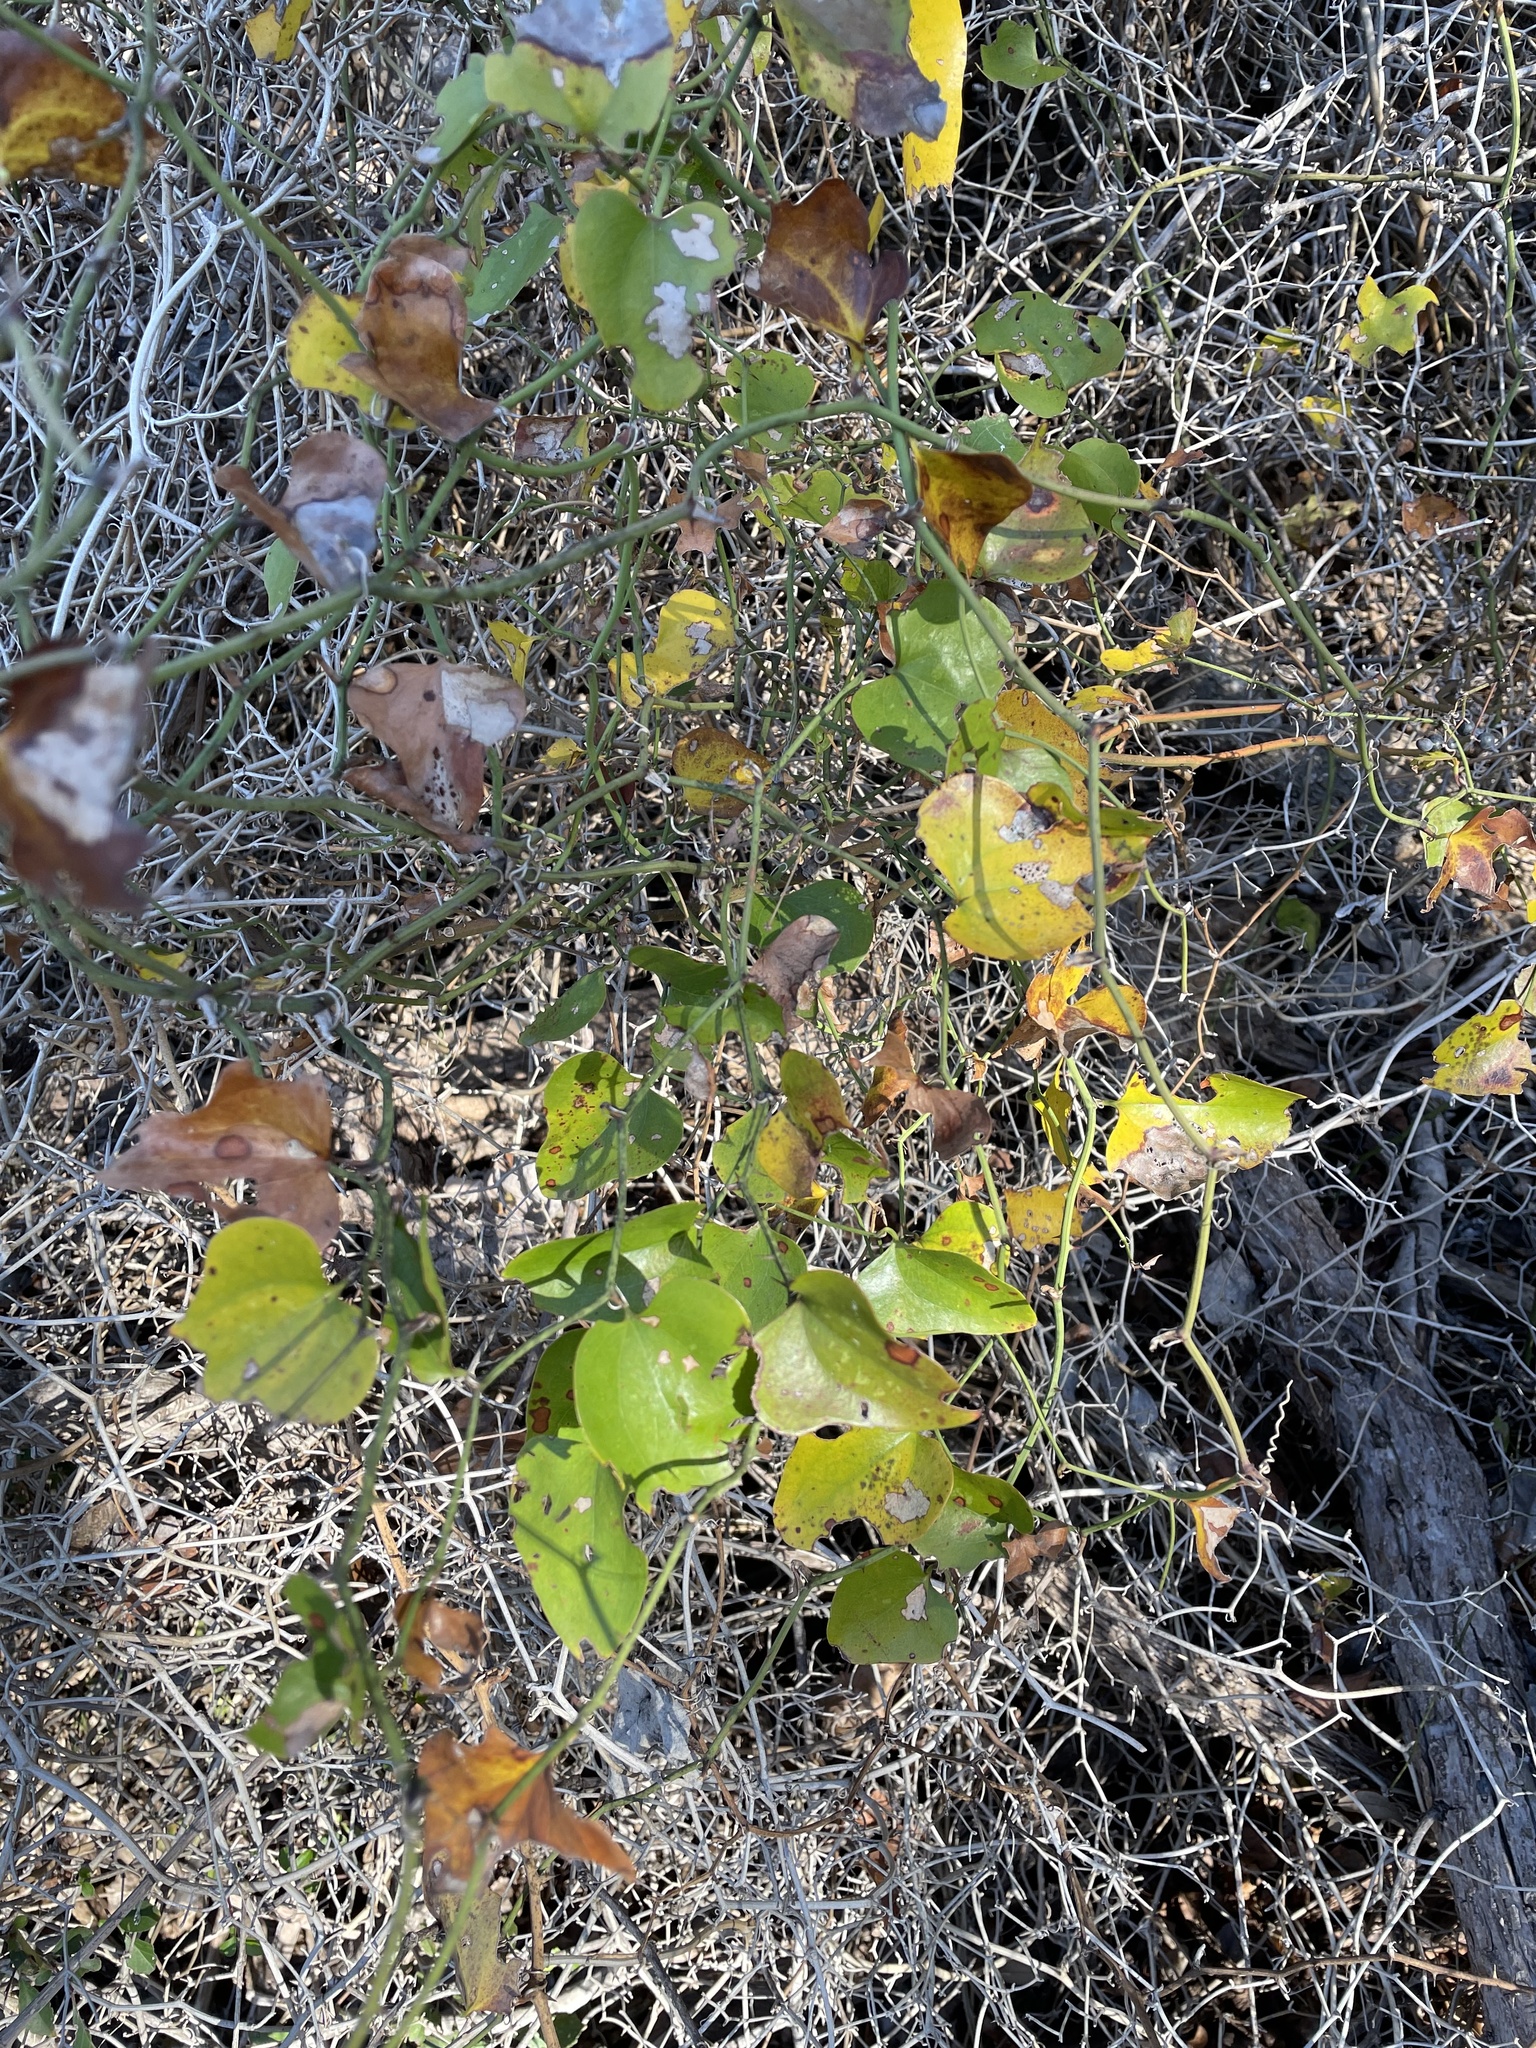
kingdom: Plantae
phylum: Tracheophyta
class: Liliopsida
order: Liliales
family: Smilacaceae
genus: Smilax
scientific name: Smilax bona-nox
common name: Catbrier
